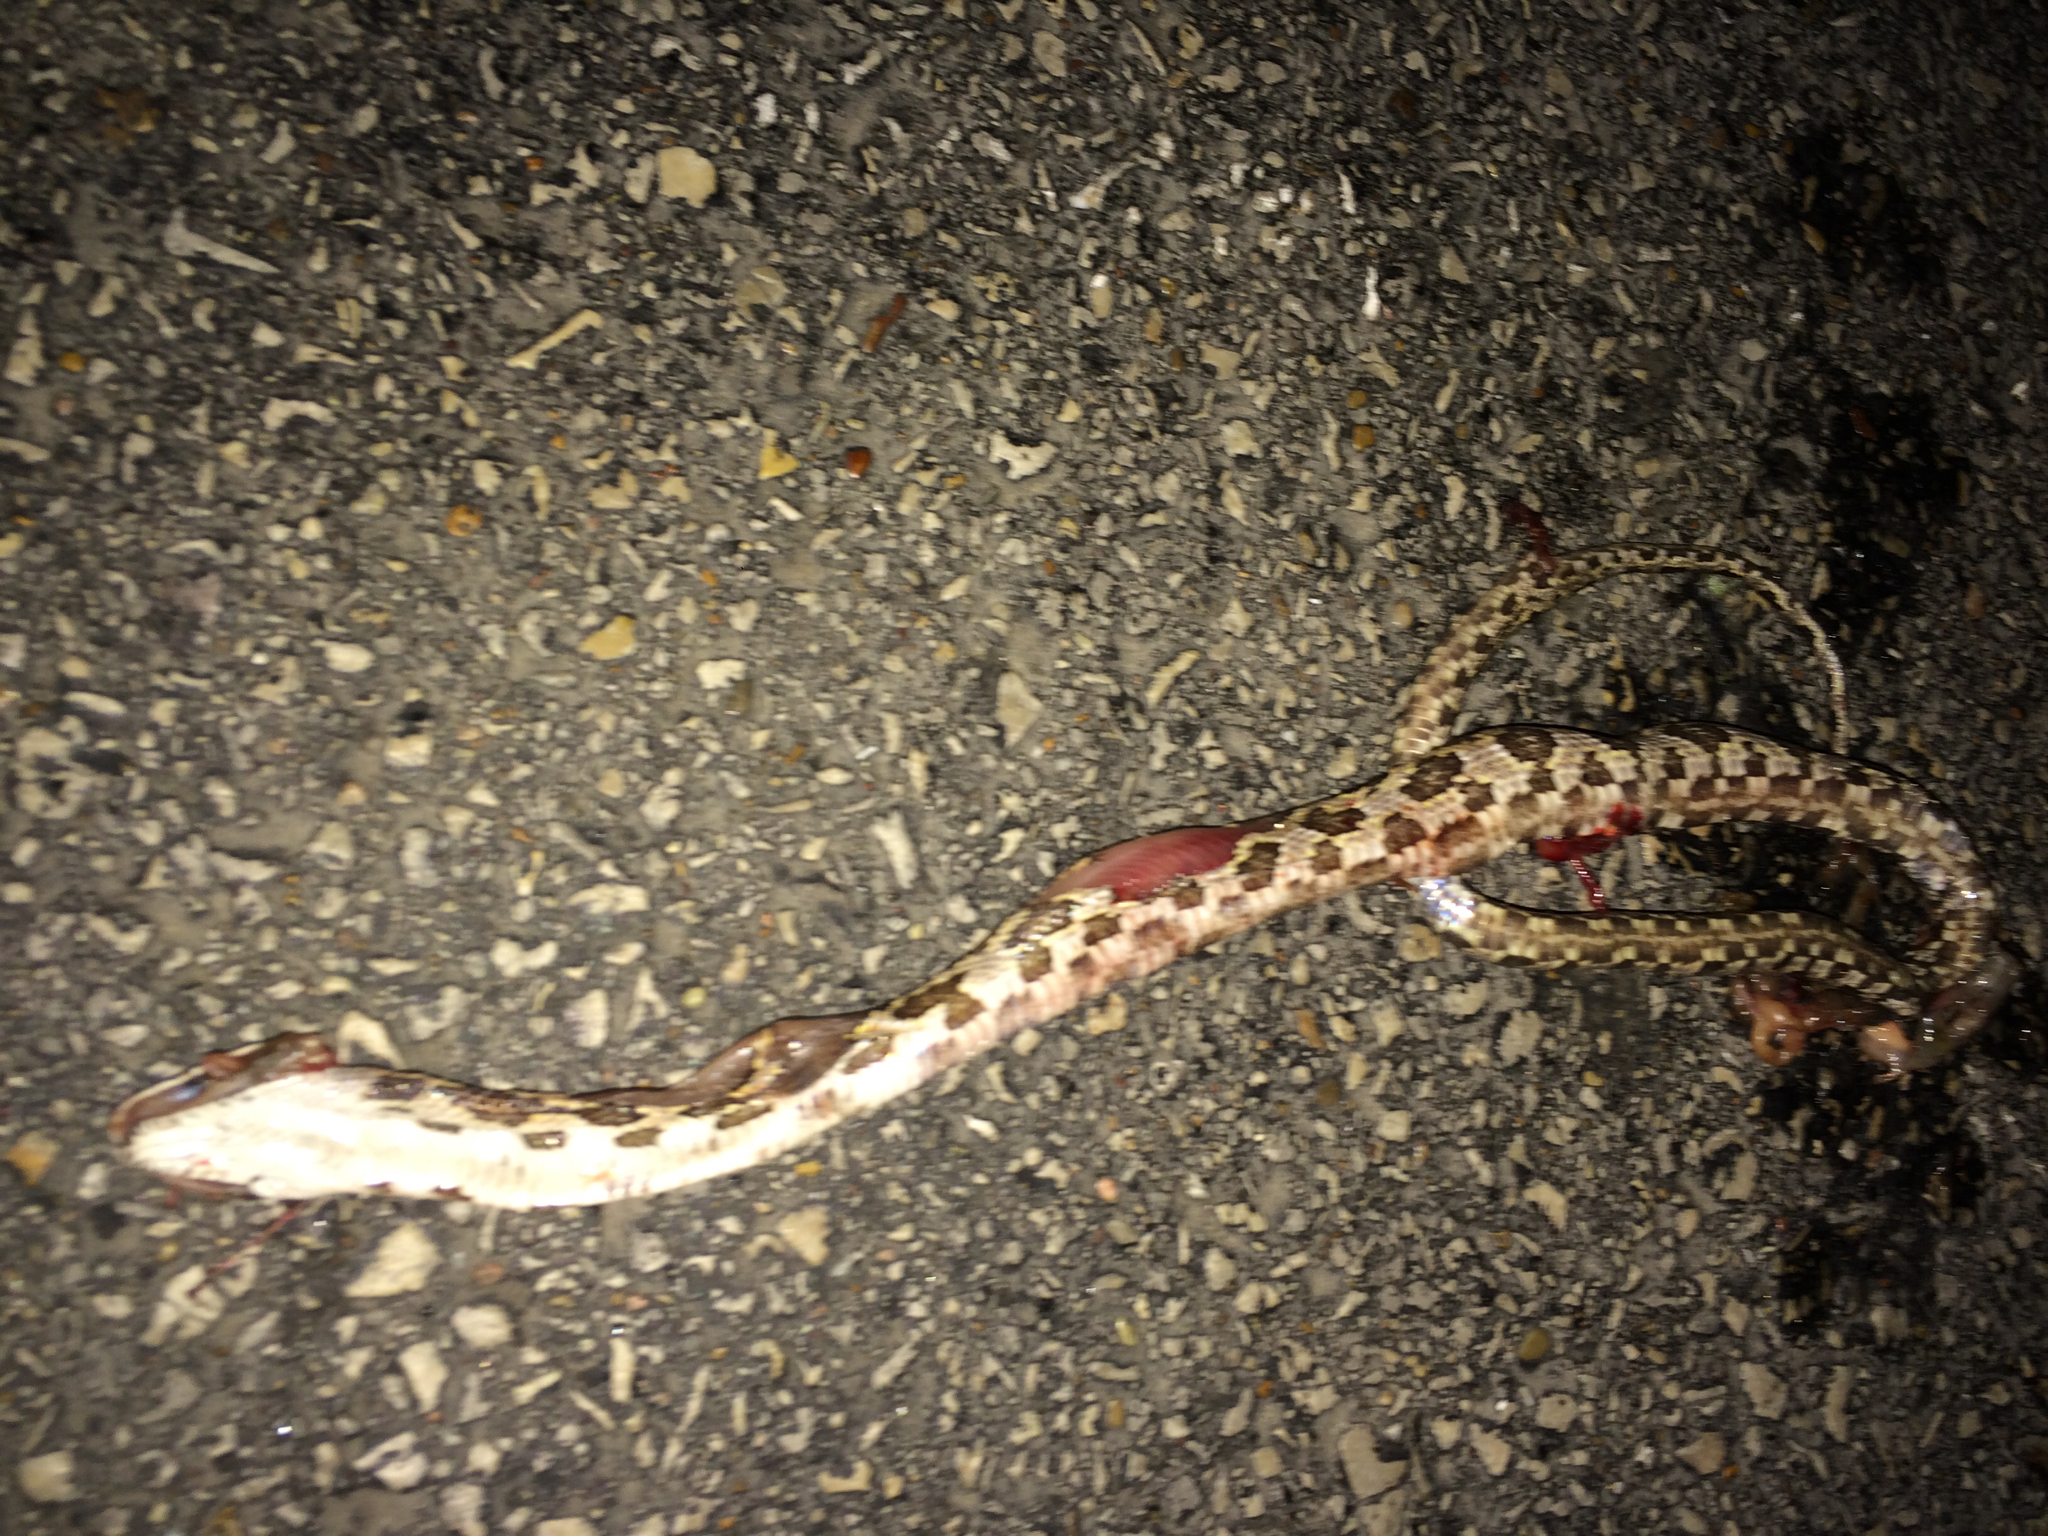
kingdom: Animalia
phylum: Chordata
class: Squamata
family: Colubridae
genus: Pantherophis
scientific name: Pantherophis obsoletus
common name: Black rat snake
